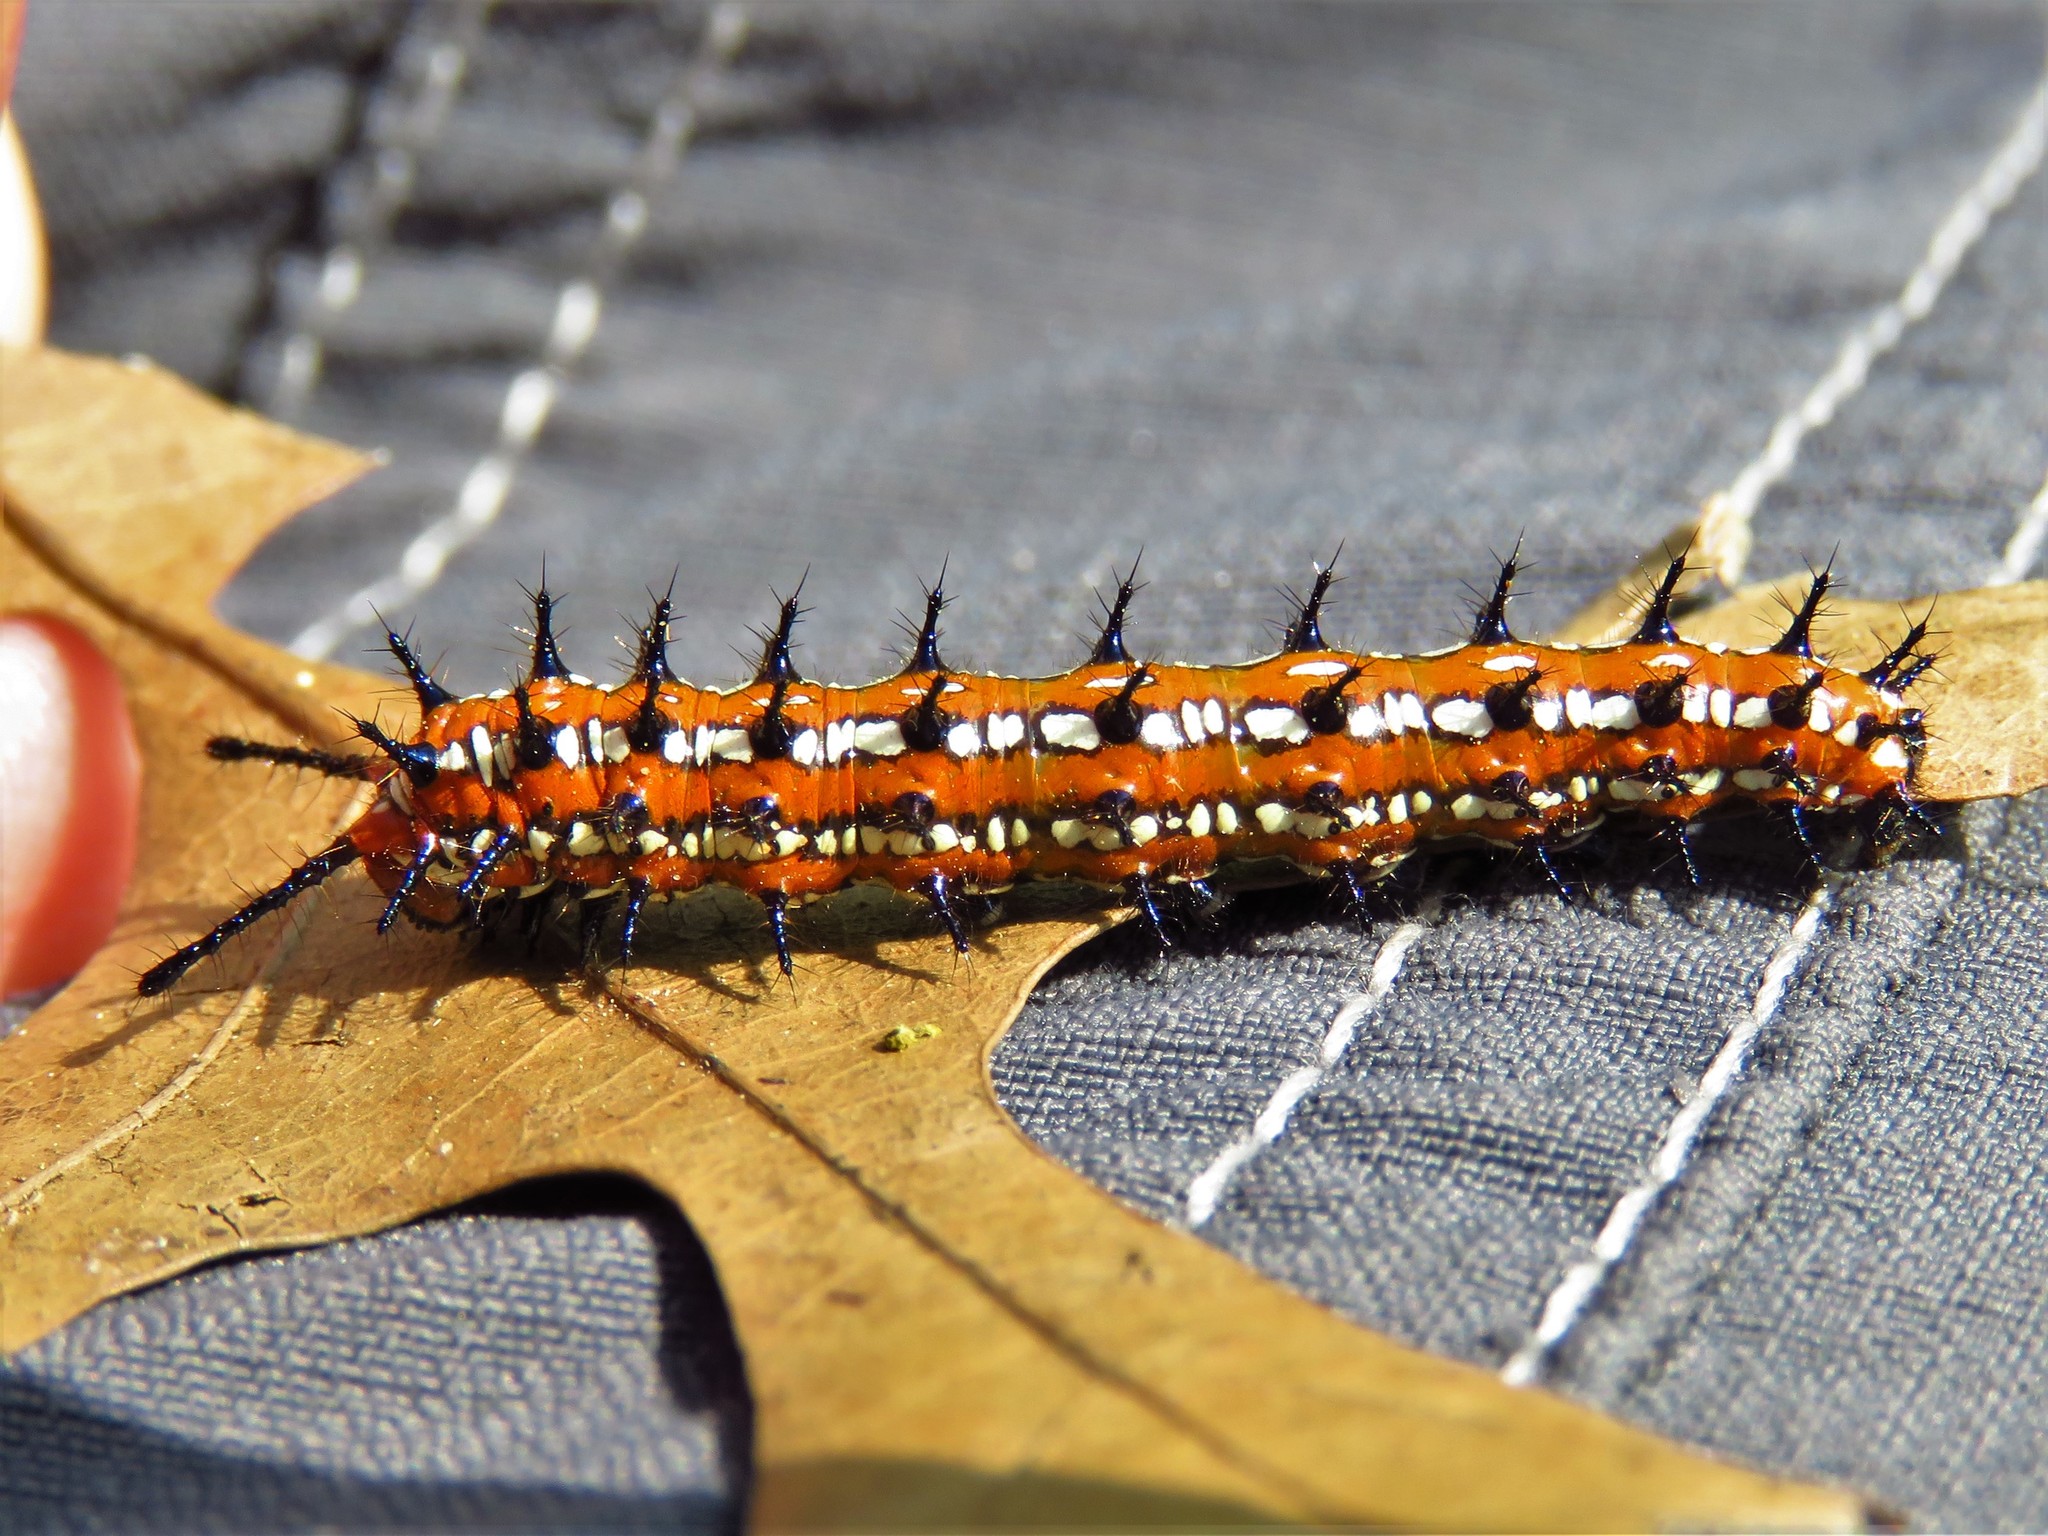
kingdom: Animalia
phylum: Arthropoda
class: Insecta
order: Lepidoptera
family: Nymphalidae
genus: Euptoieta
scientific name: Euptoieta claudia
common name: Variegated fritillary
